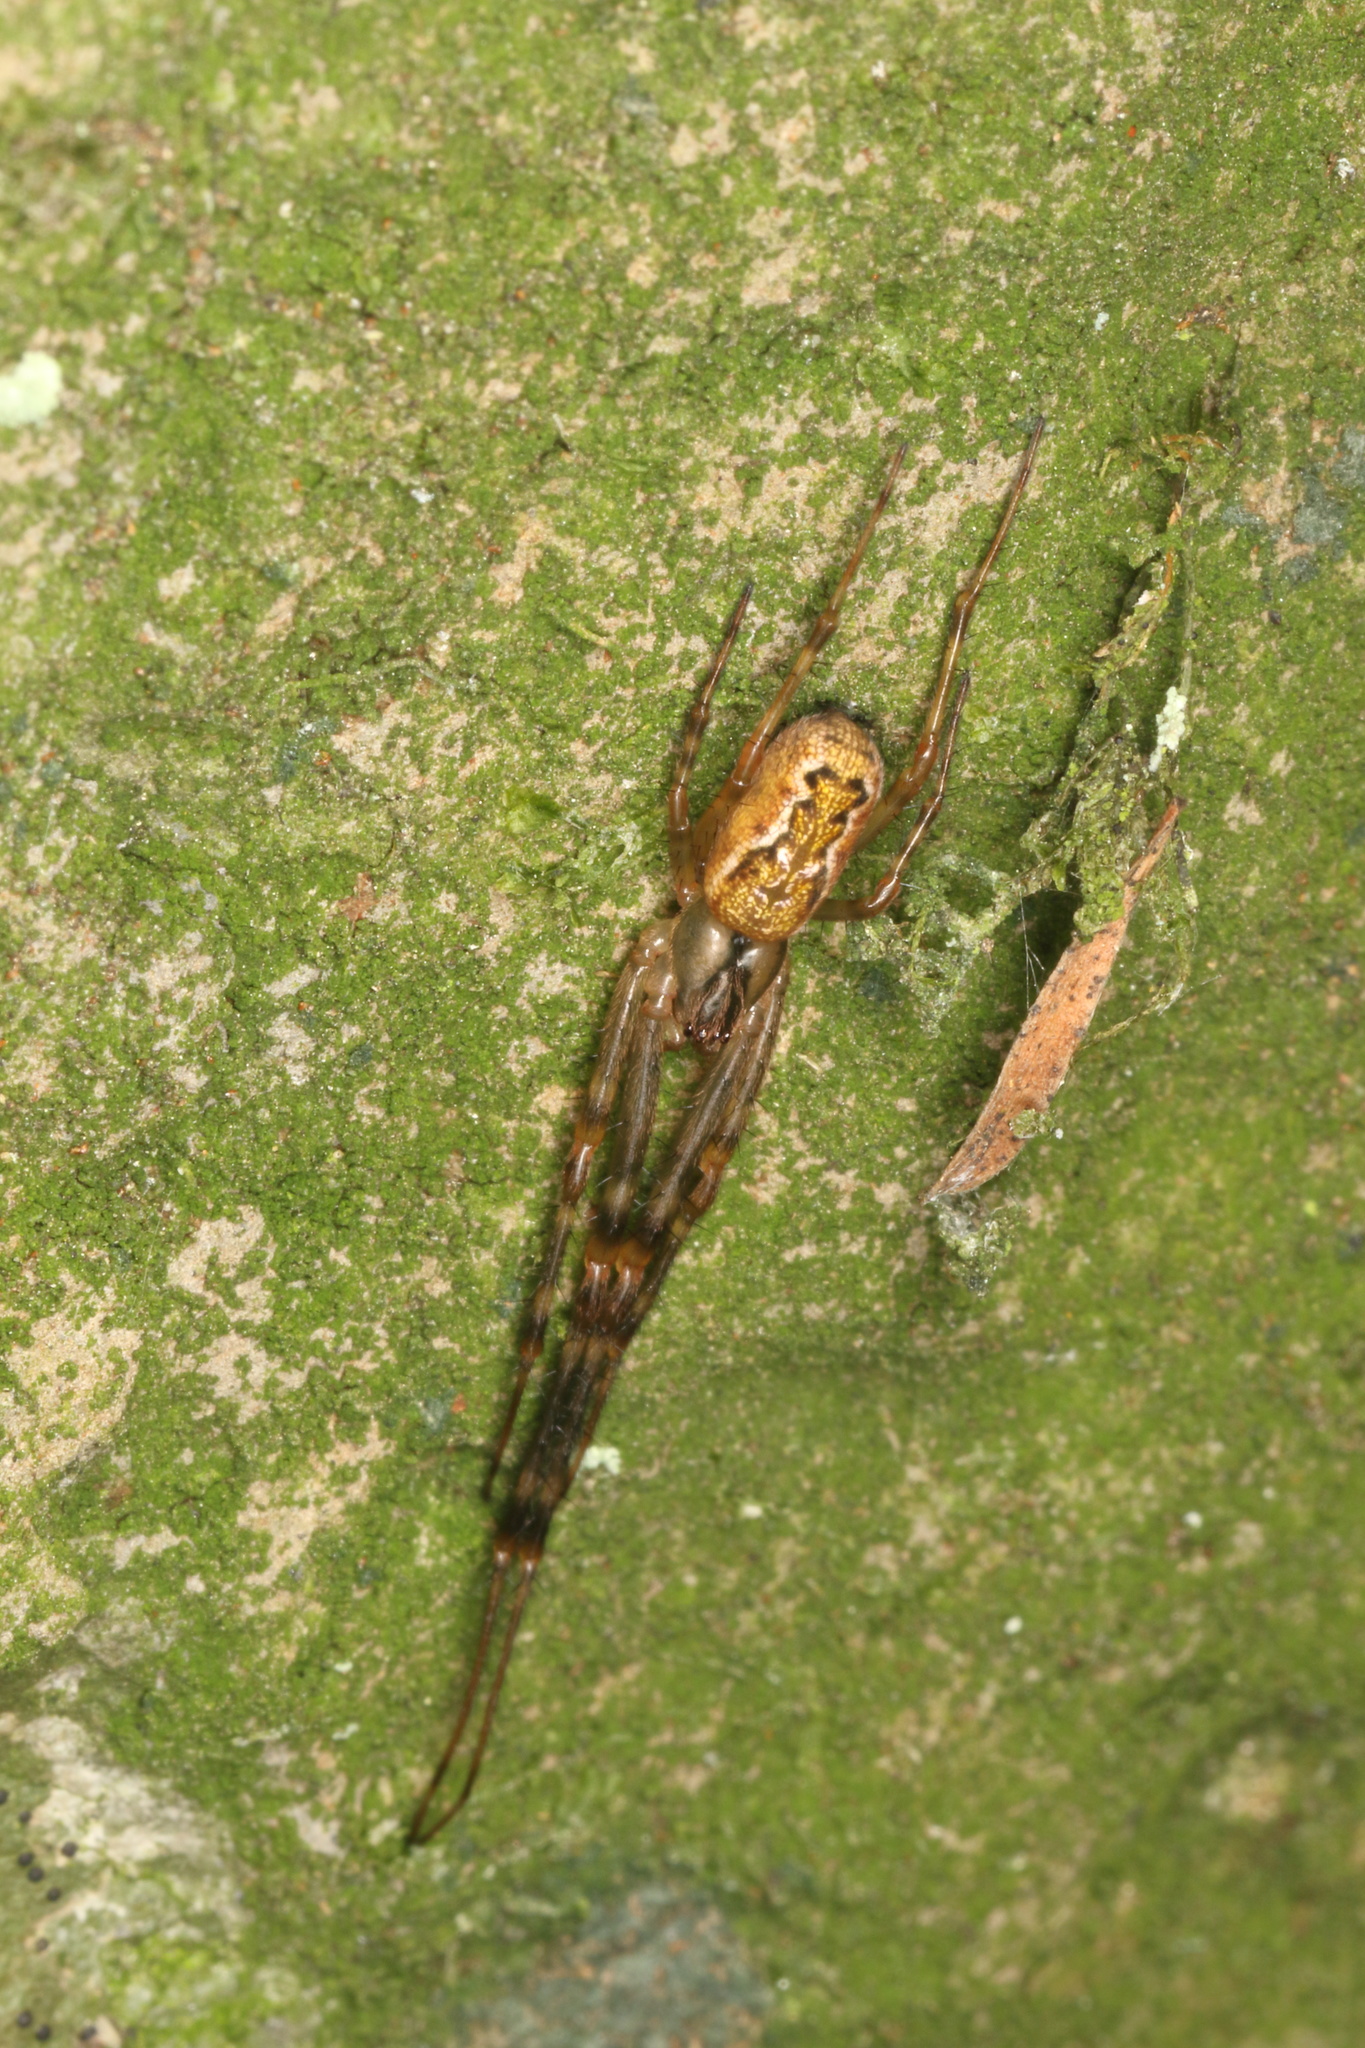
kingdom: Animalia
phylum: Arthropoda
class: Arachnida
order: Araneae
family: Tetragnathidae
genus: Nanometa
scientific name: Nanometa lagenifera
